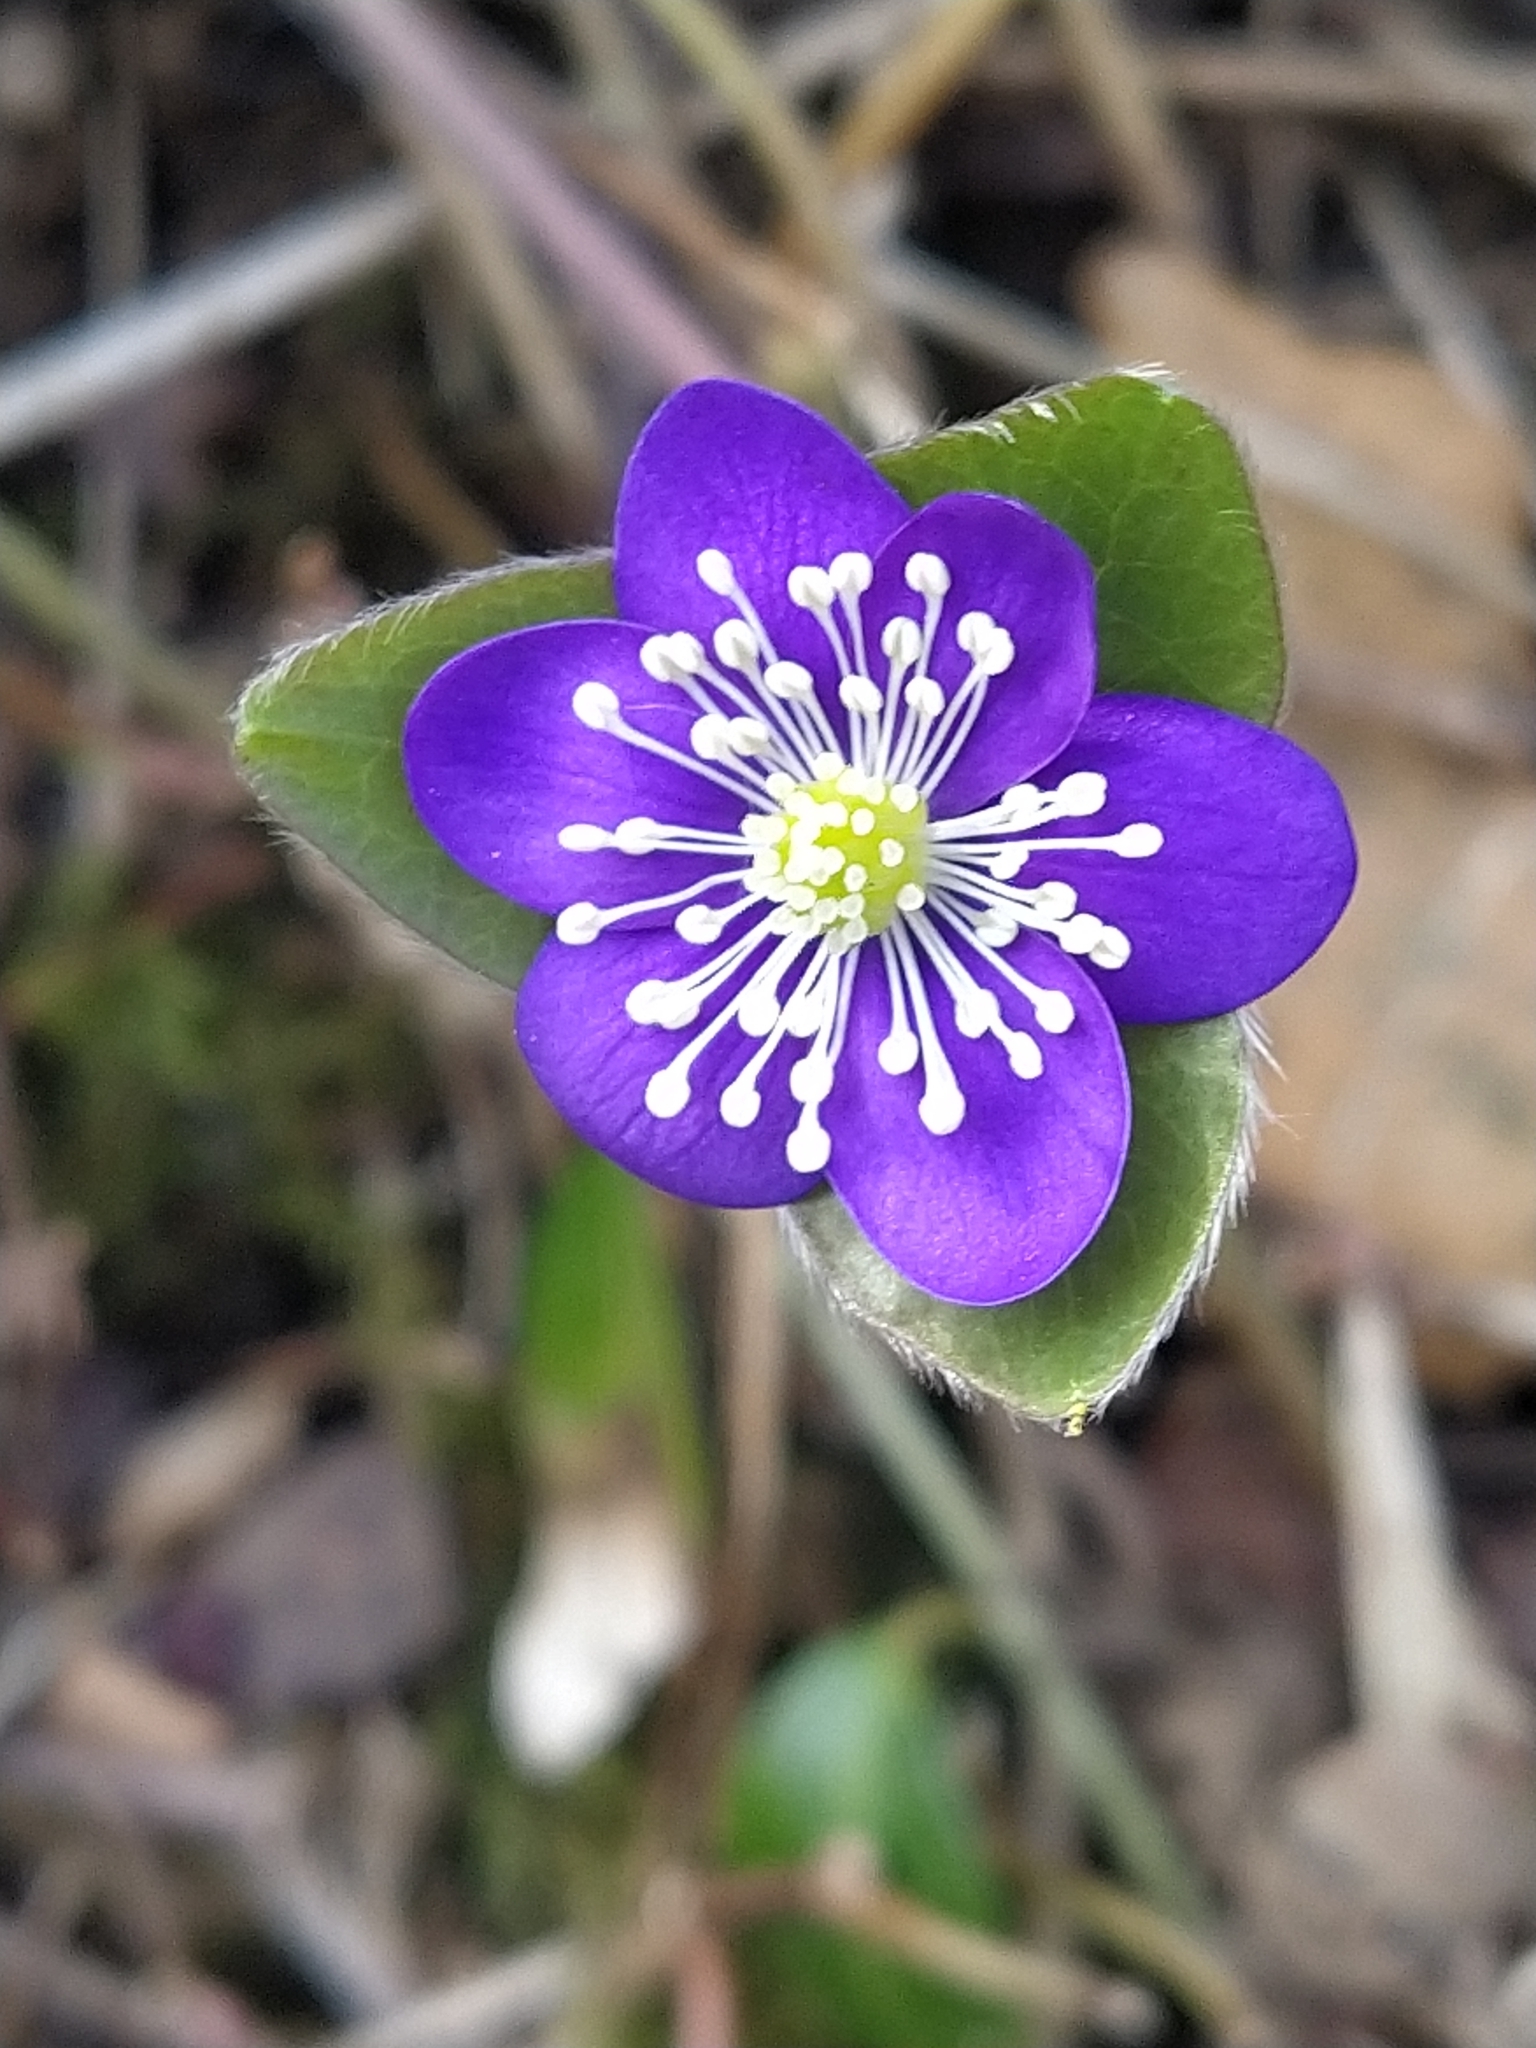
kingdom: Plantae
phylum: Tracheophyta
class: Magnoliopsida
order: Ranunculales
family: Ranunculaceae
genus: Hepatica
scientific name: Hepatica nobilis
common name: Liverleaf
